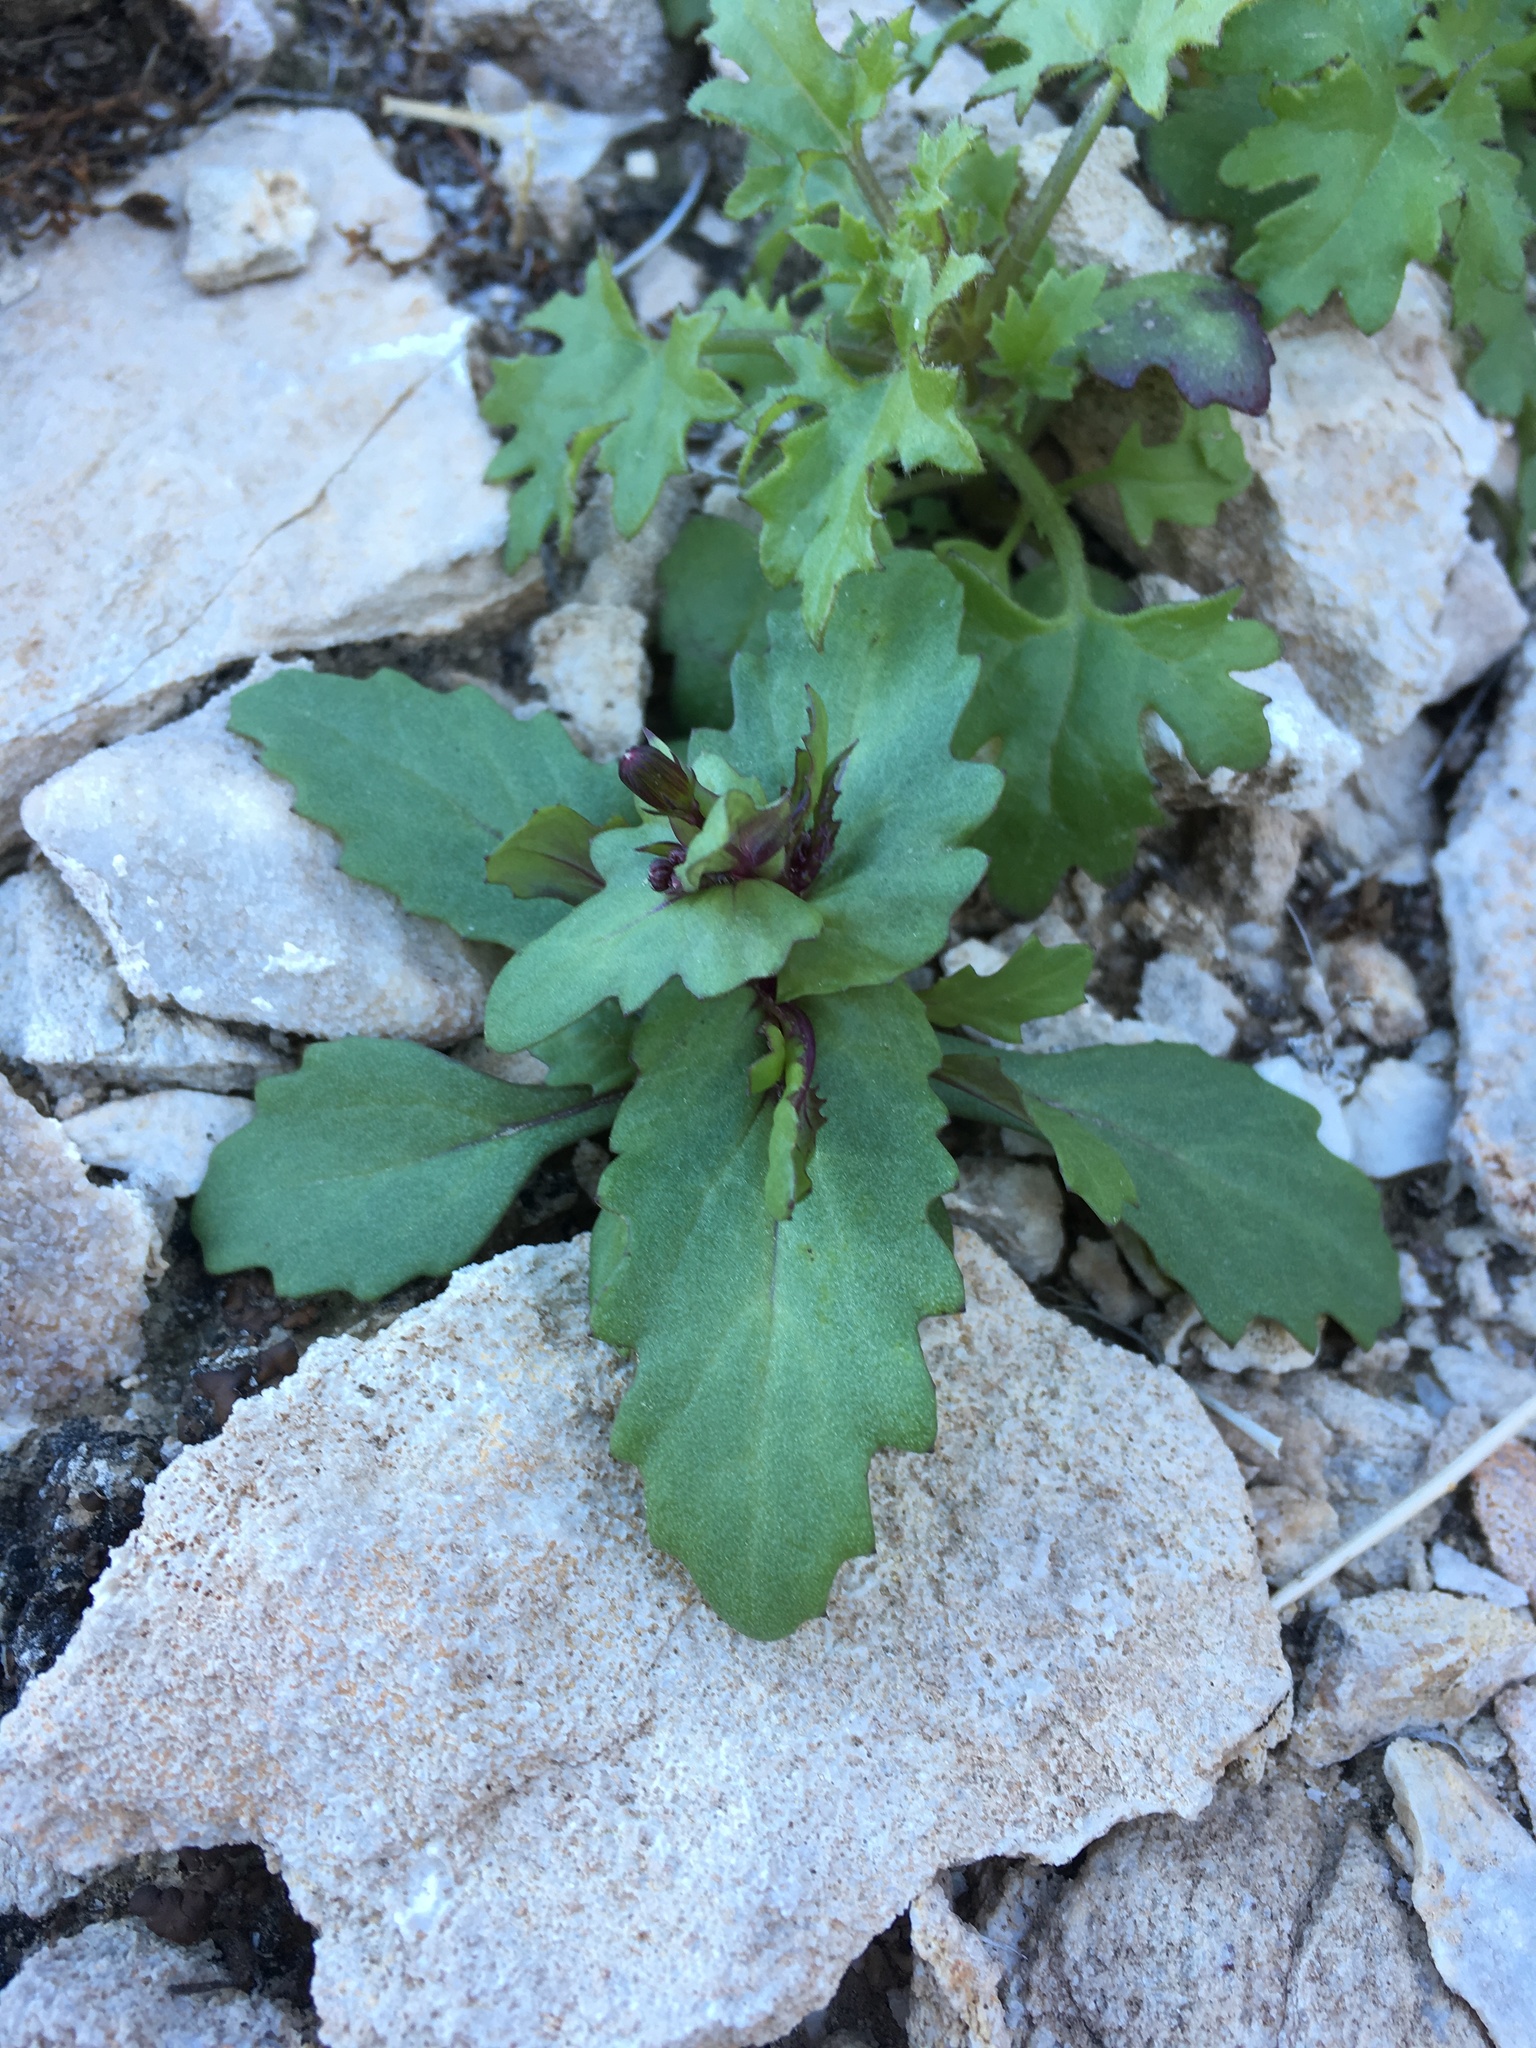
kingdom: Plantae
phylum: Tracheophyta
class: Magnoliopsida
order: Asterales
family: Asteraceae
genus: Senecio
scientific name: Senecio mohavensis
